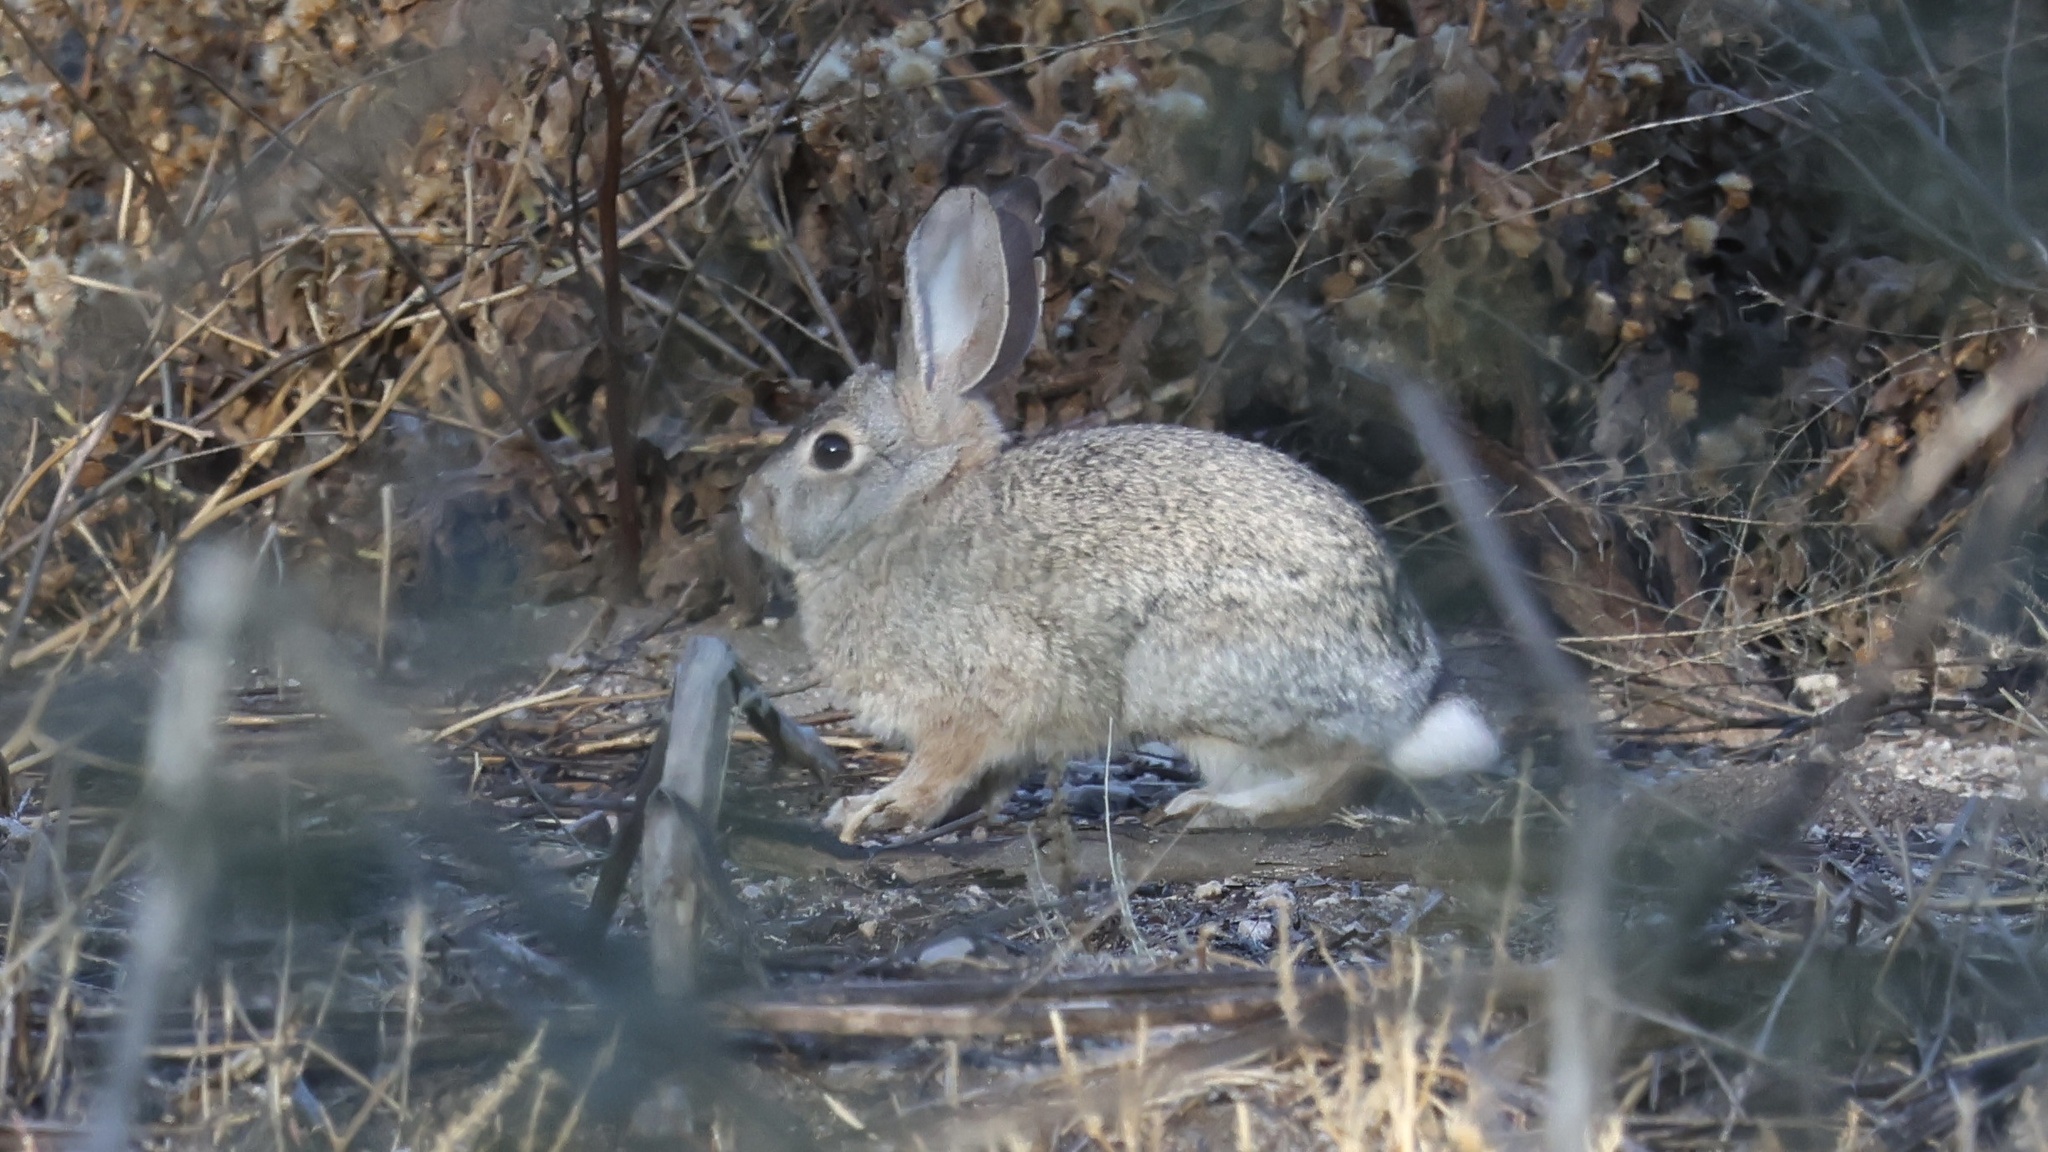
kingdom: Animalia
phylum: Chordata
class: Mammalia
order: Lagomorpha
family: Leporidae
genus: Sylvilagus
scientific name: Sylvilagus audubonii
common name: Desert cottontail
